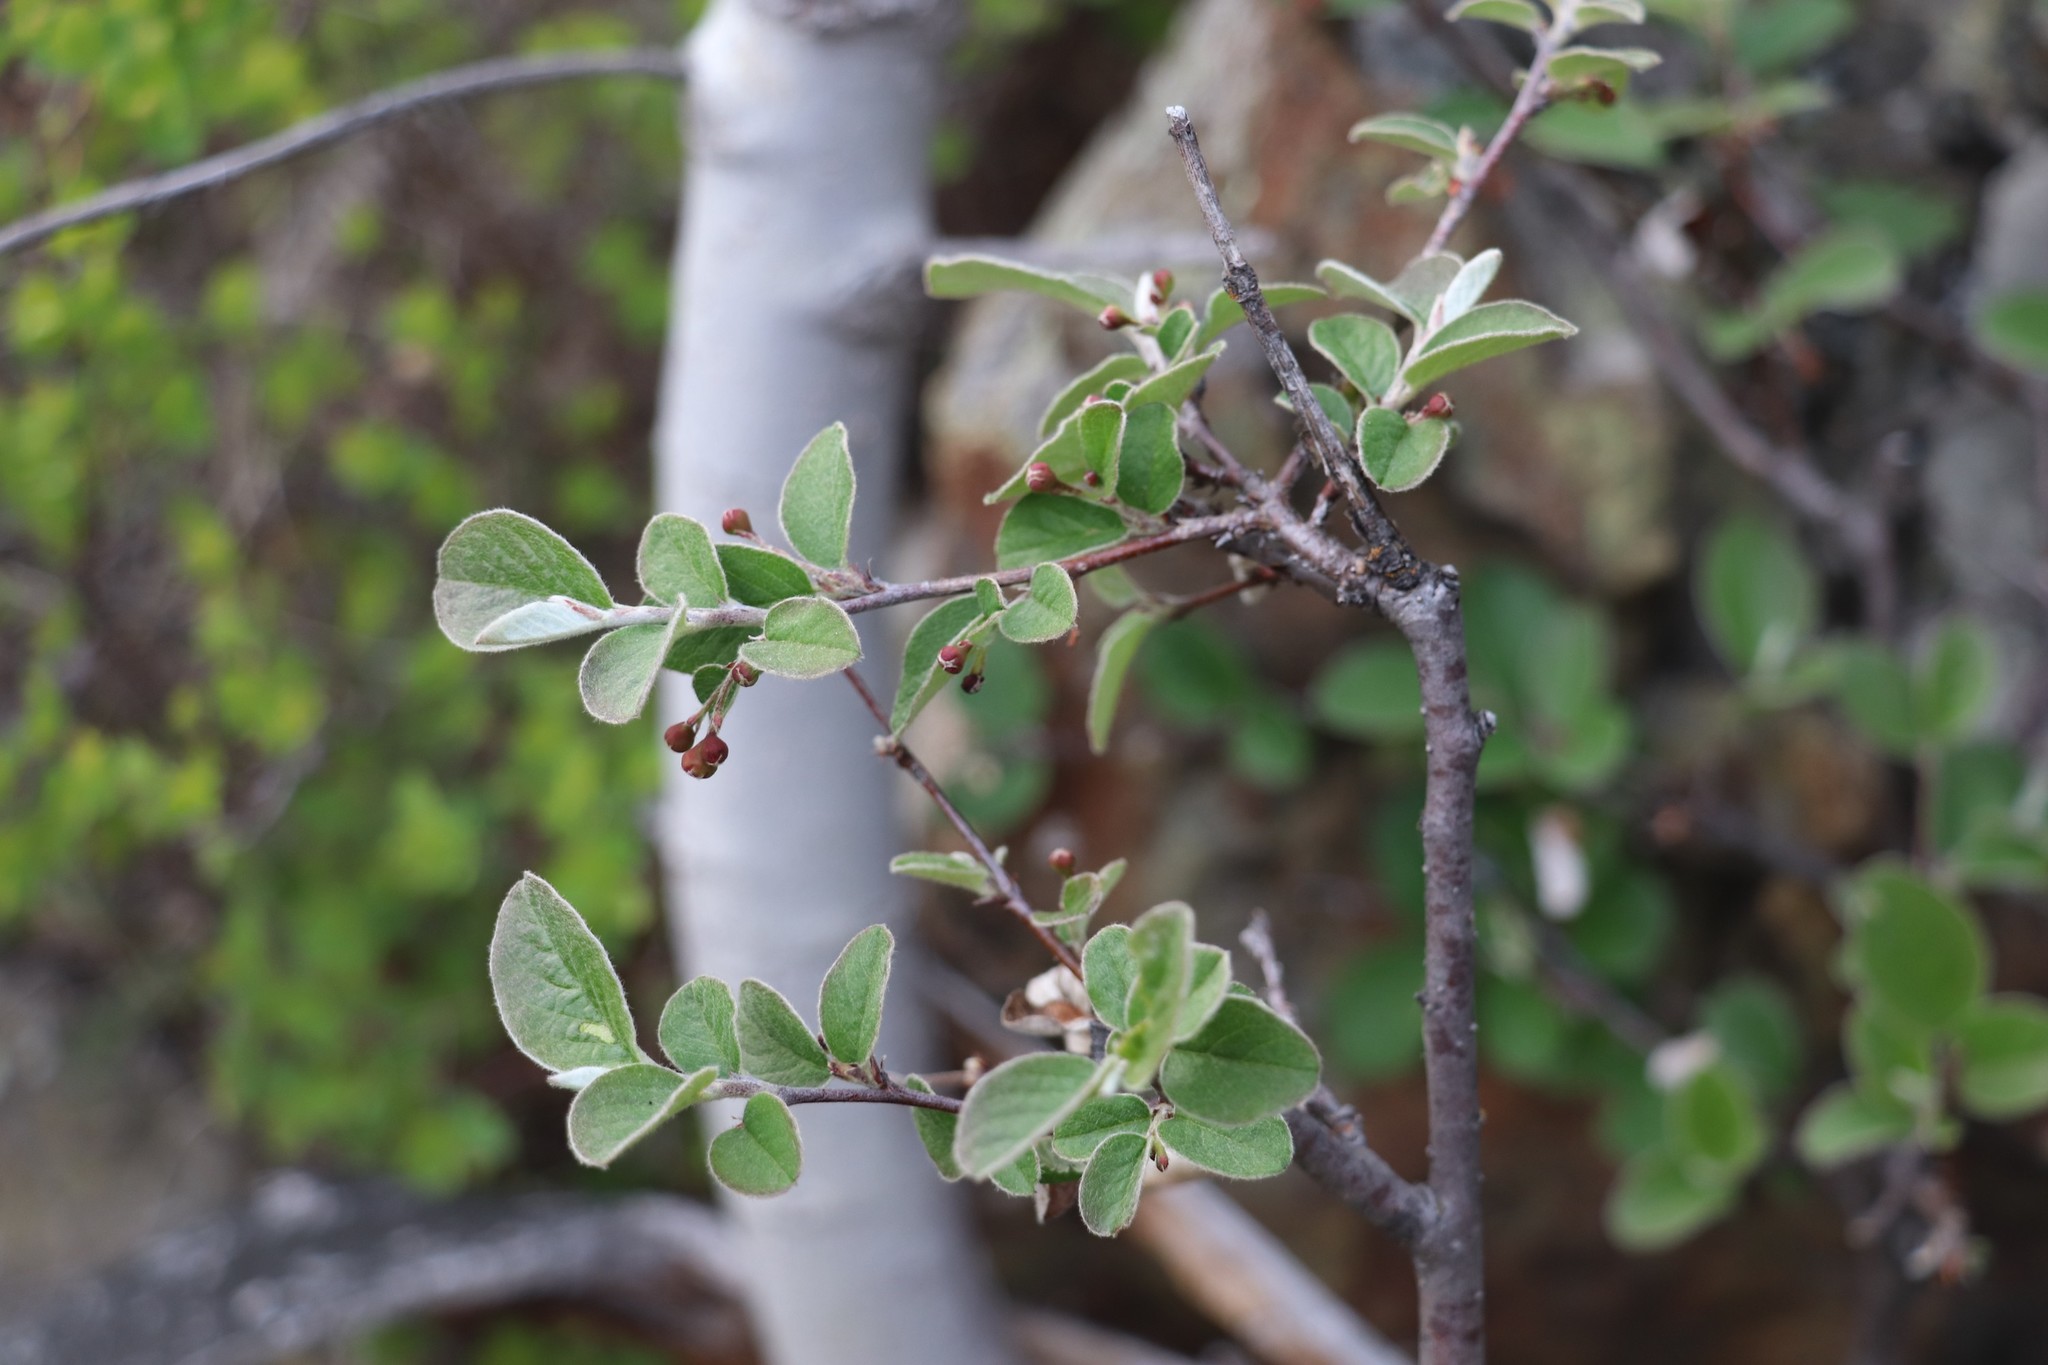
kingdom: Plantae
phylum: Tracheophyta
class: Magnoliopsida
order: Rosales
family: Rosaceae
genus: Cotoneaster
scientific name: Cotoneaster melanocarpus
